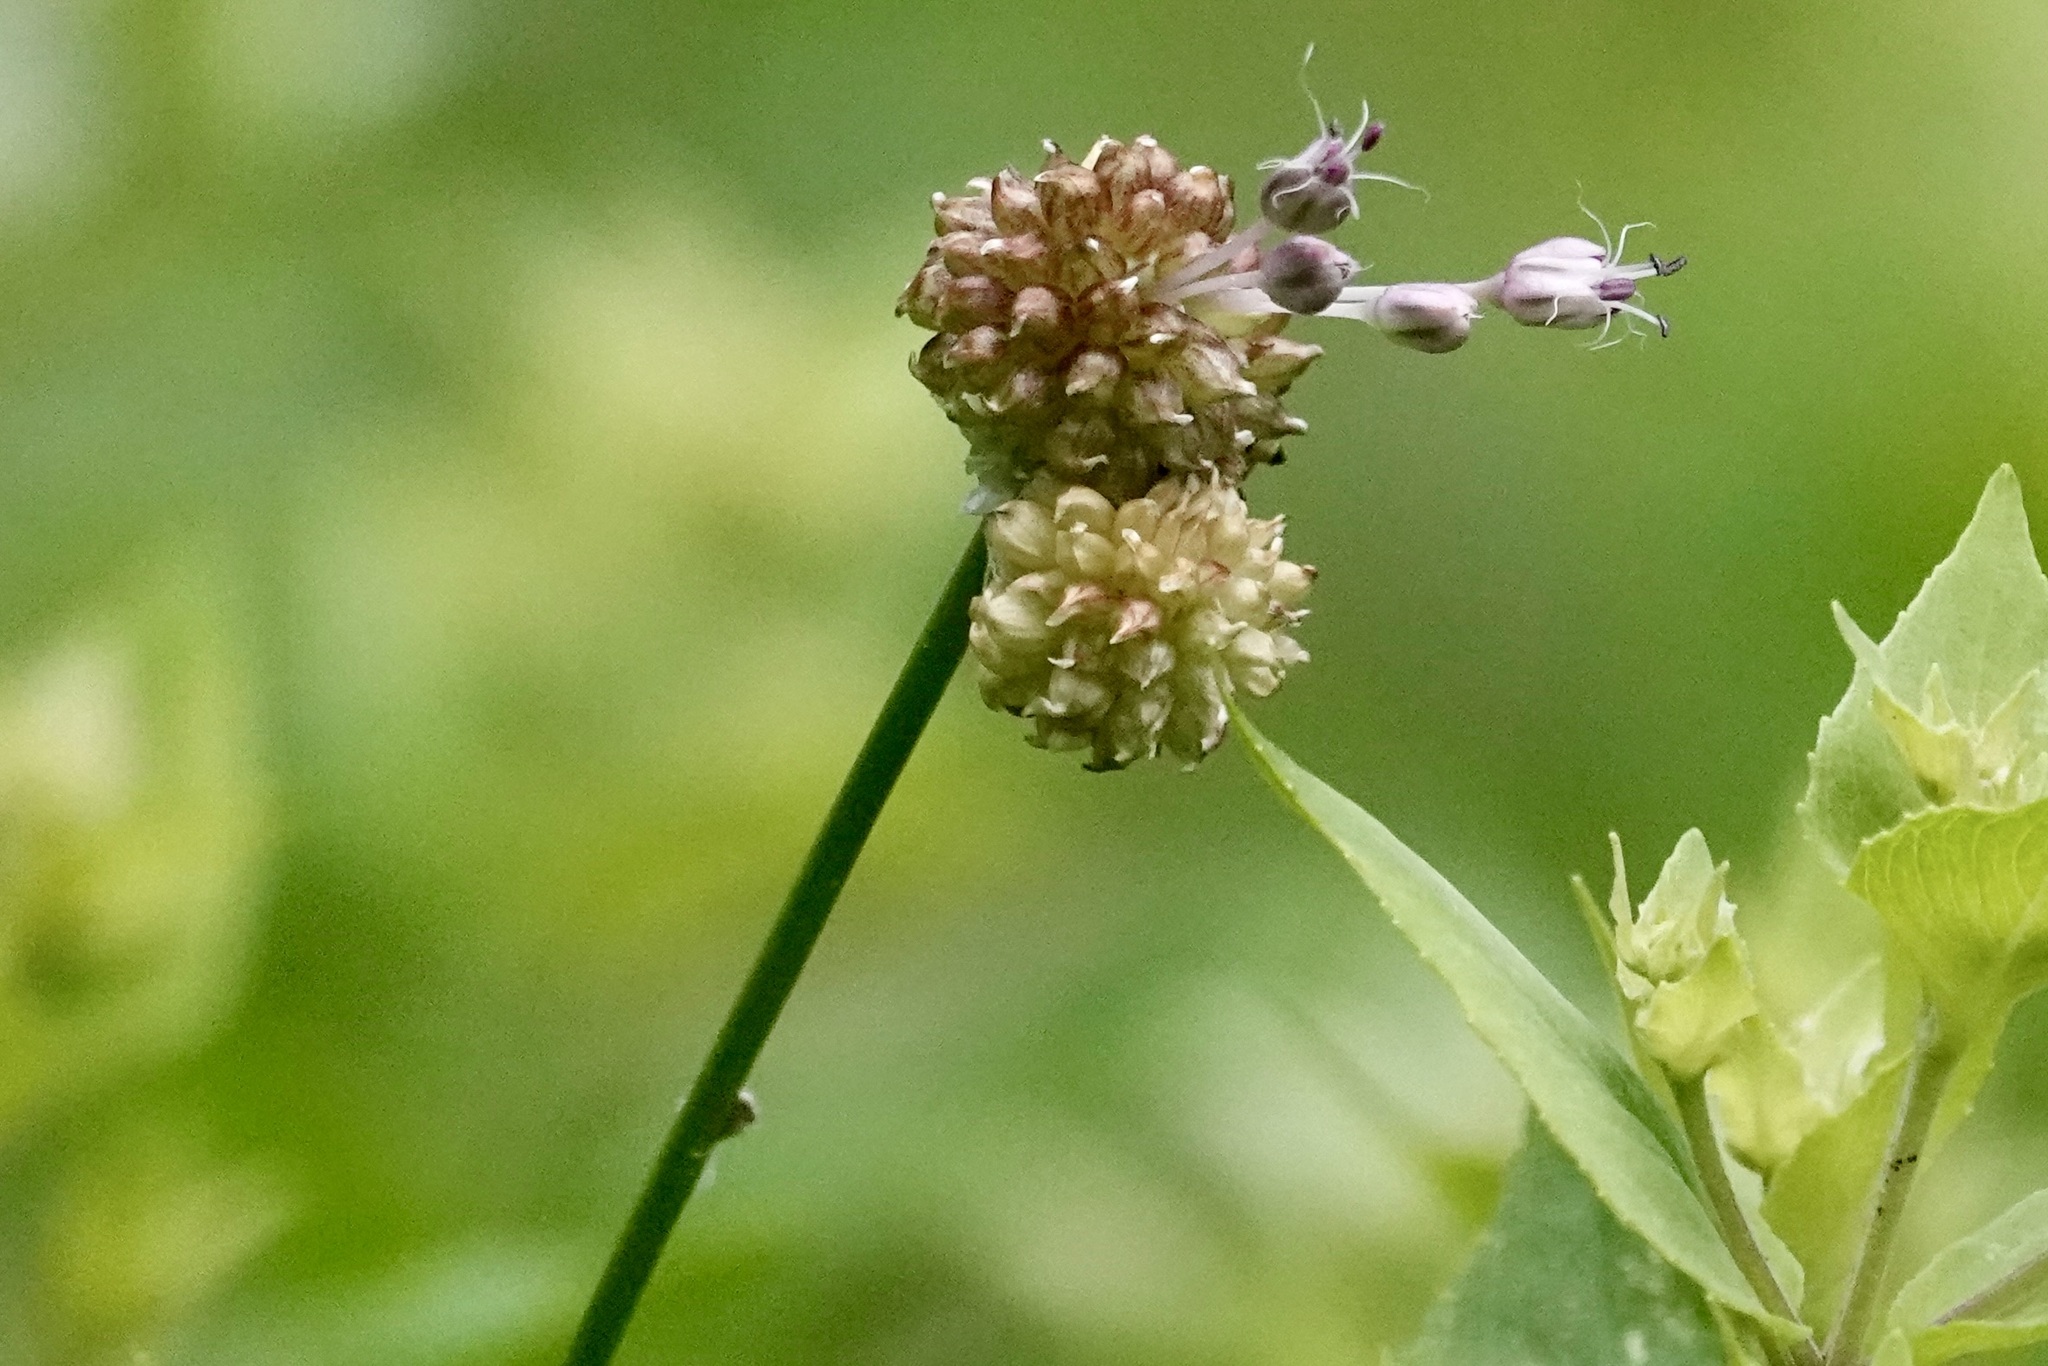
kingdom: Plantae
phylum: Tracheophyta
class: Liliopsida
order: Asparagales
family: Amaryllidaceae
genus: Allium
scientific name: Allium vineale
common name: Crow garlic
